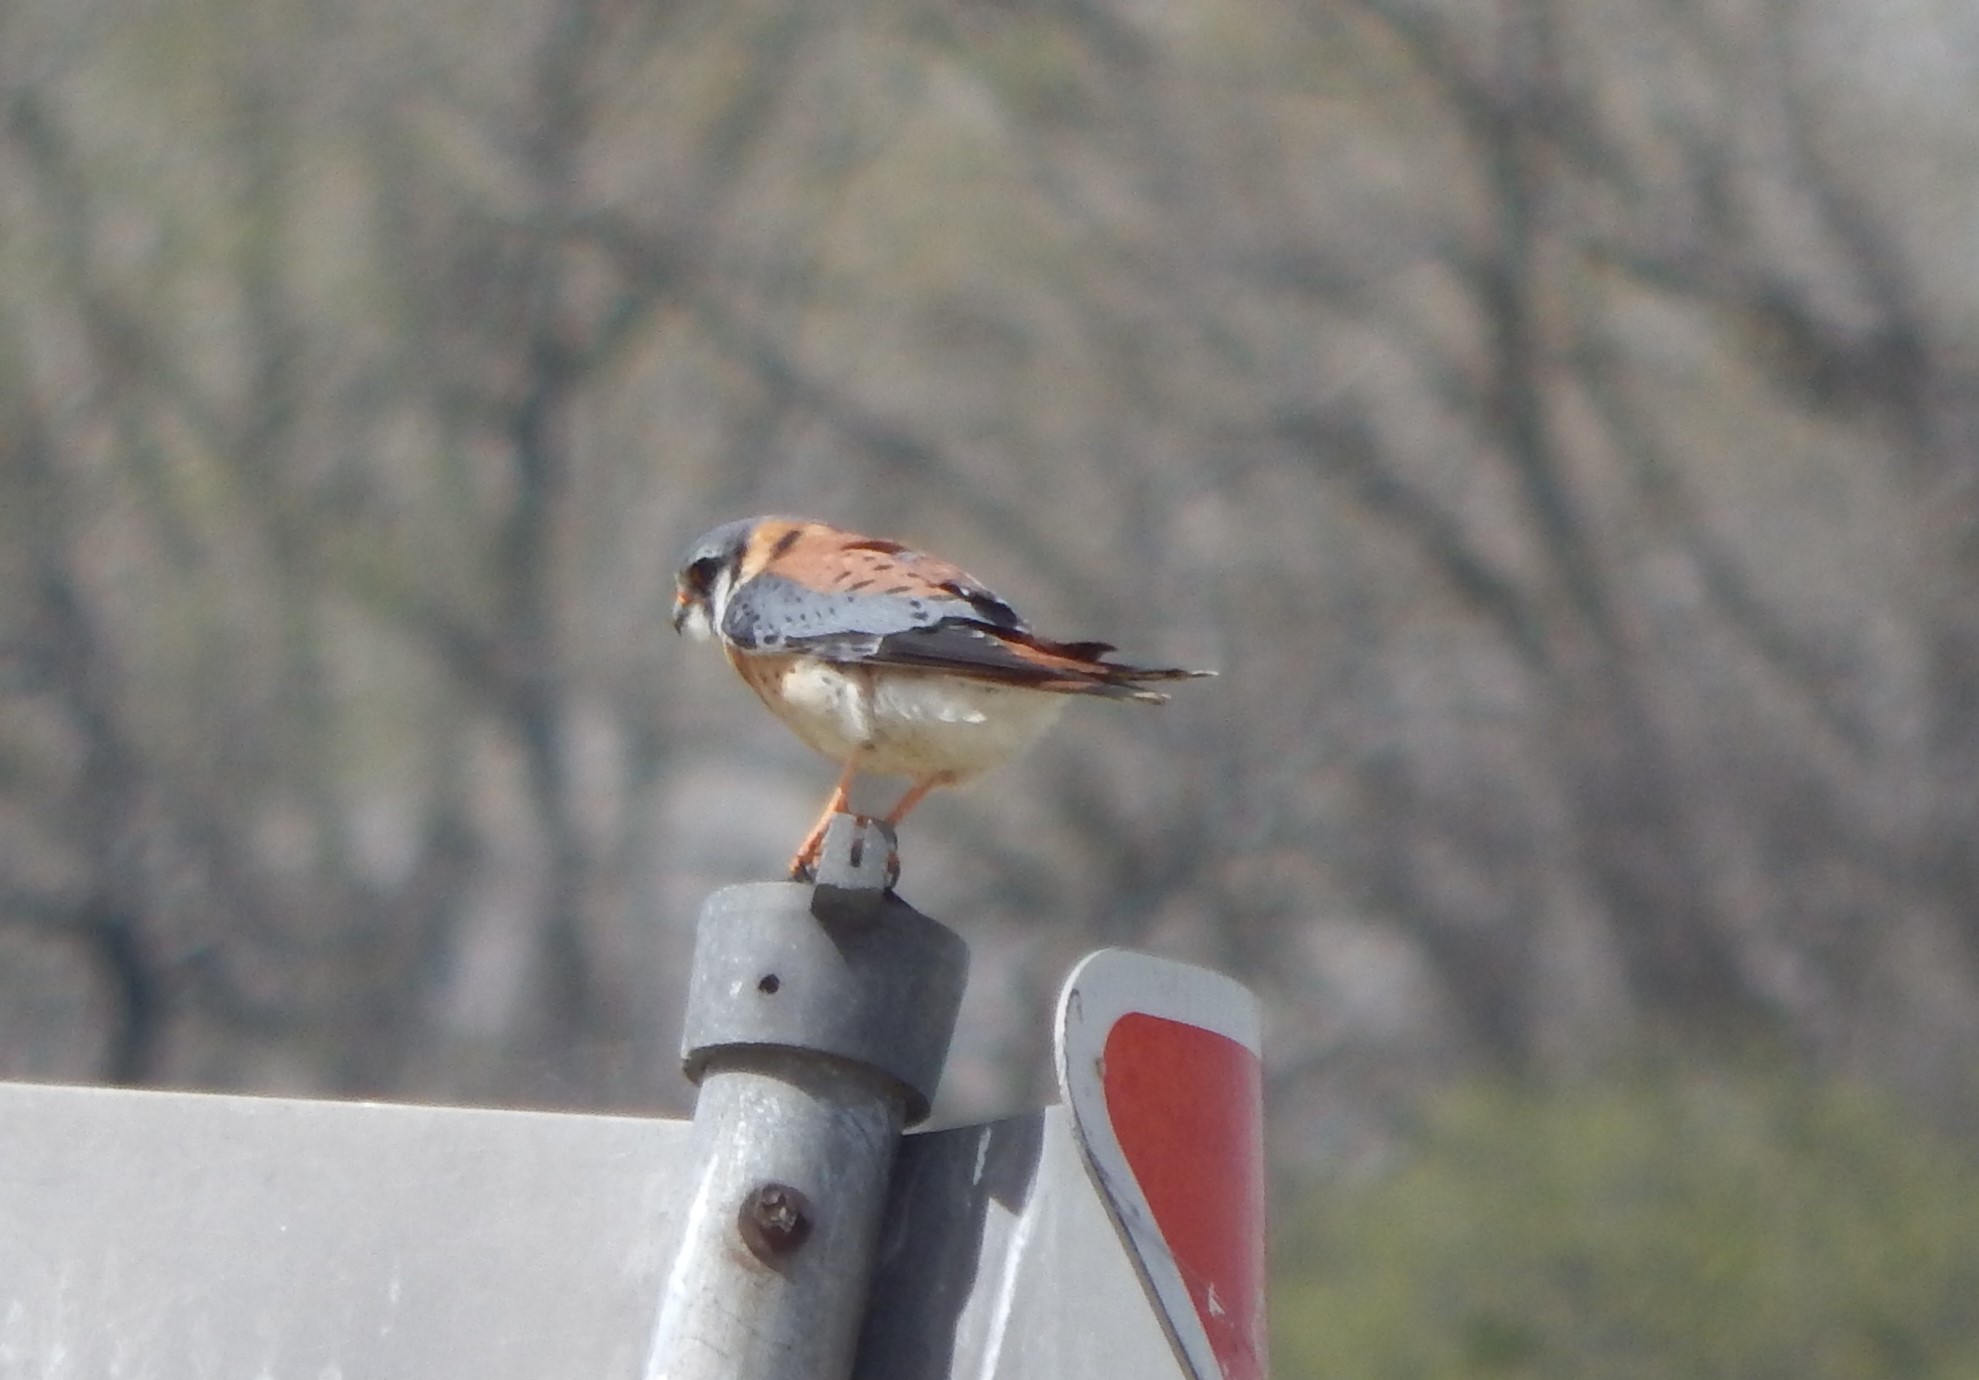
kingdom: Animalia
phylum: Chordata
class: Aves
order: Falconiformes
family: Falconidae
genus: Falco
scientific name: Falco sparverius
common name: American kestrel
